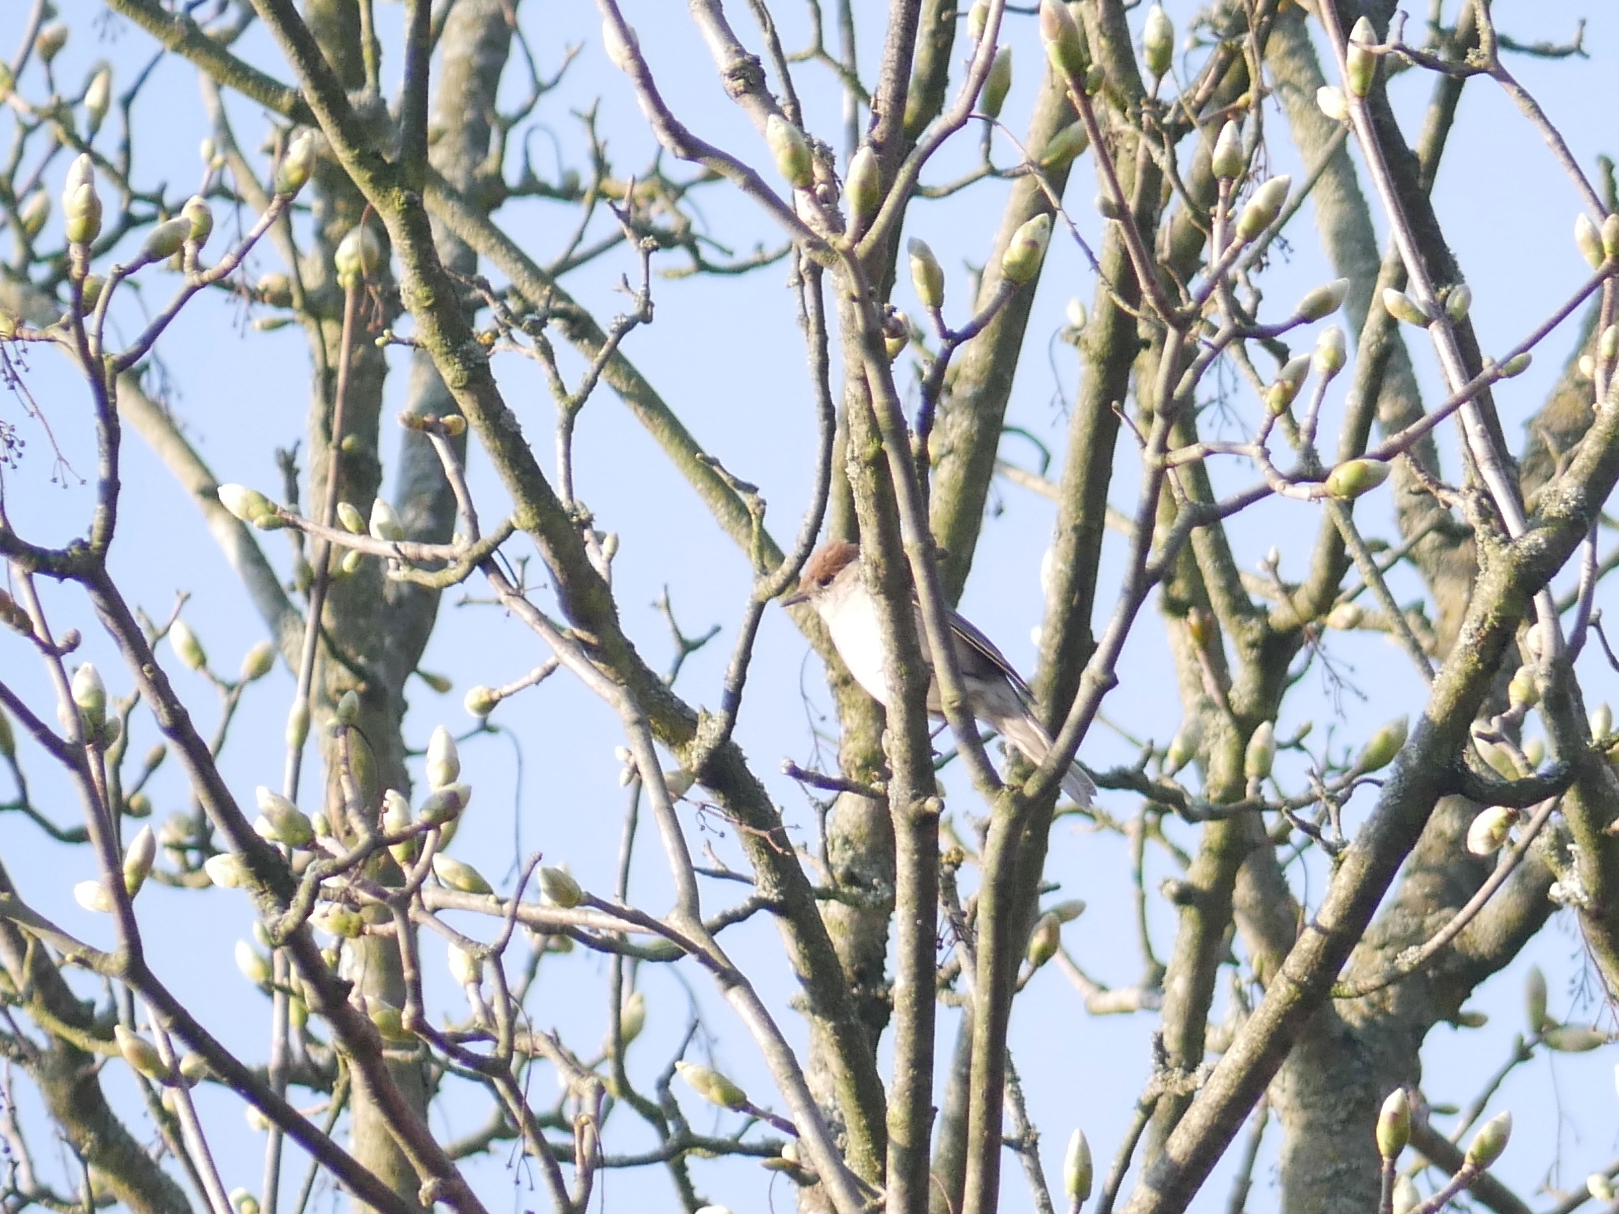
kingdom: Animalia
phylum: Chordata
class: Aves
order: Passeriformes
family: Sylviidae
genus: Sylvia
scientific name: Sylvia atricapilla
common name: Eurasian blackcap
